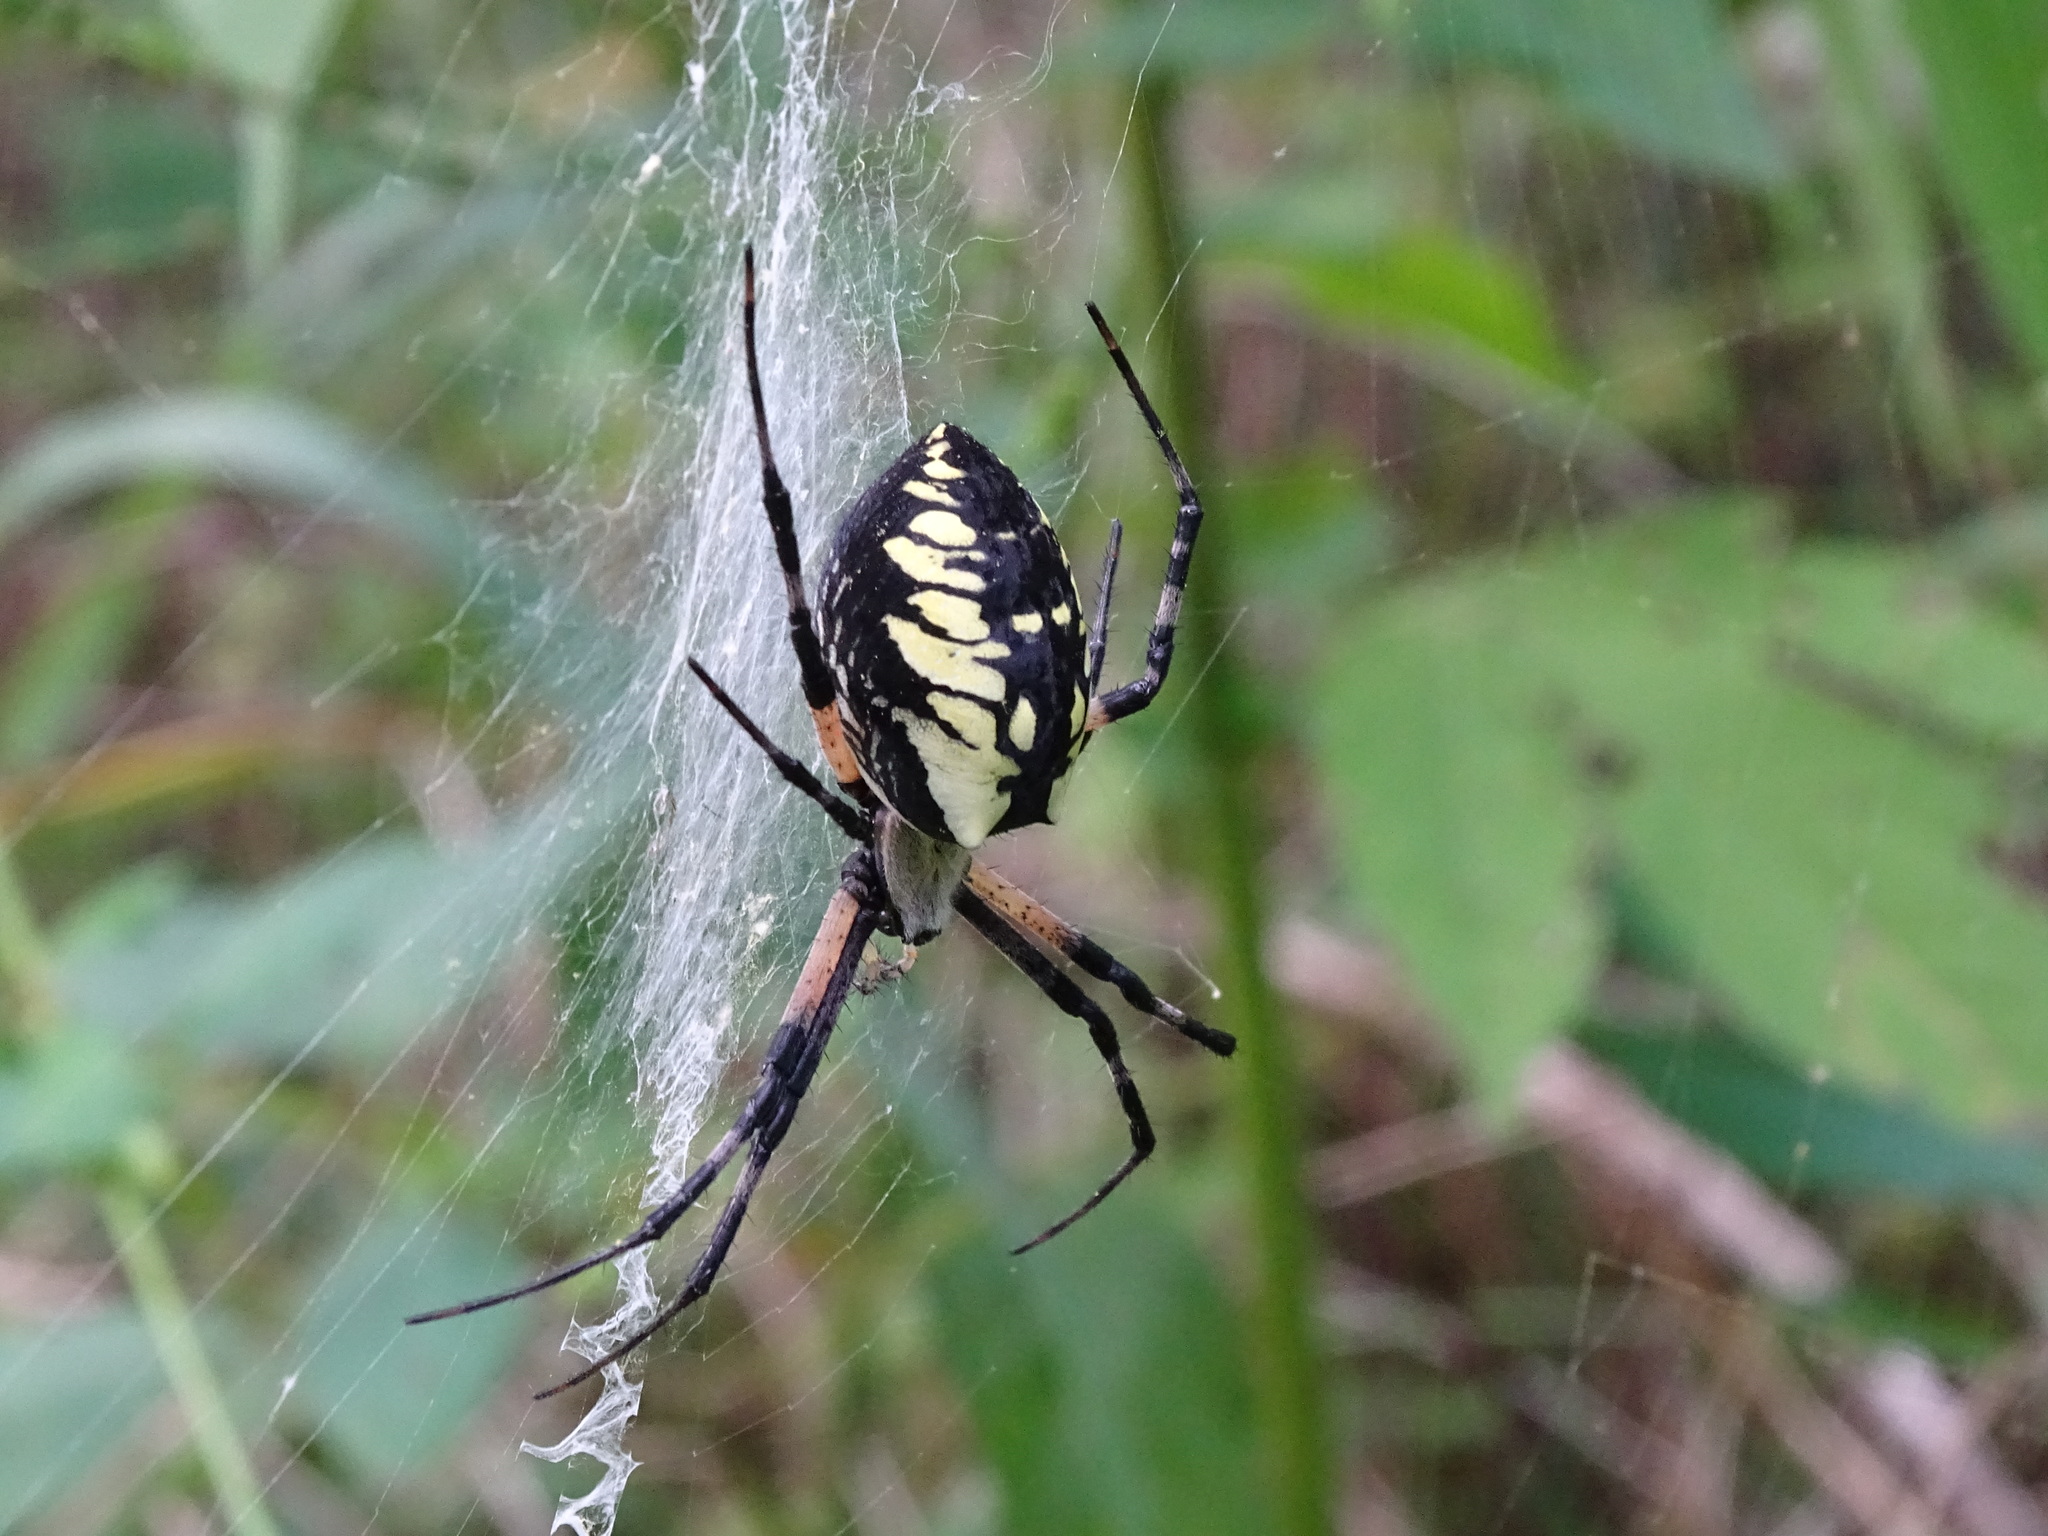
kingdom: Animalia
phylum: Arthropoda
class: Arachnida
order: Araneae
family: Araneidae
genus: Argiope
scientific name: Argiope aurantia
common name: Orb weavers
